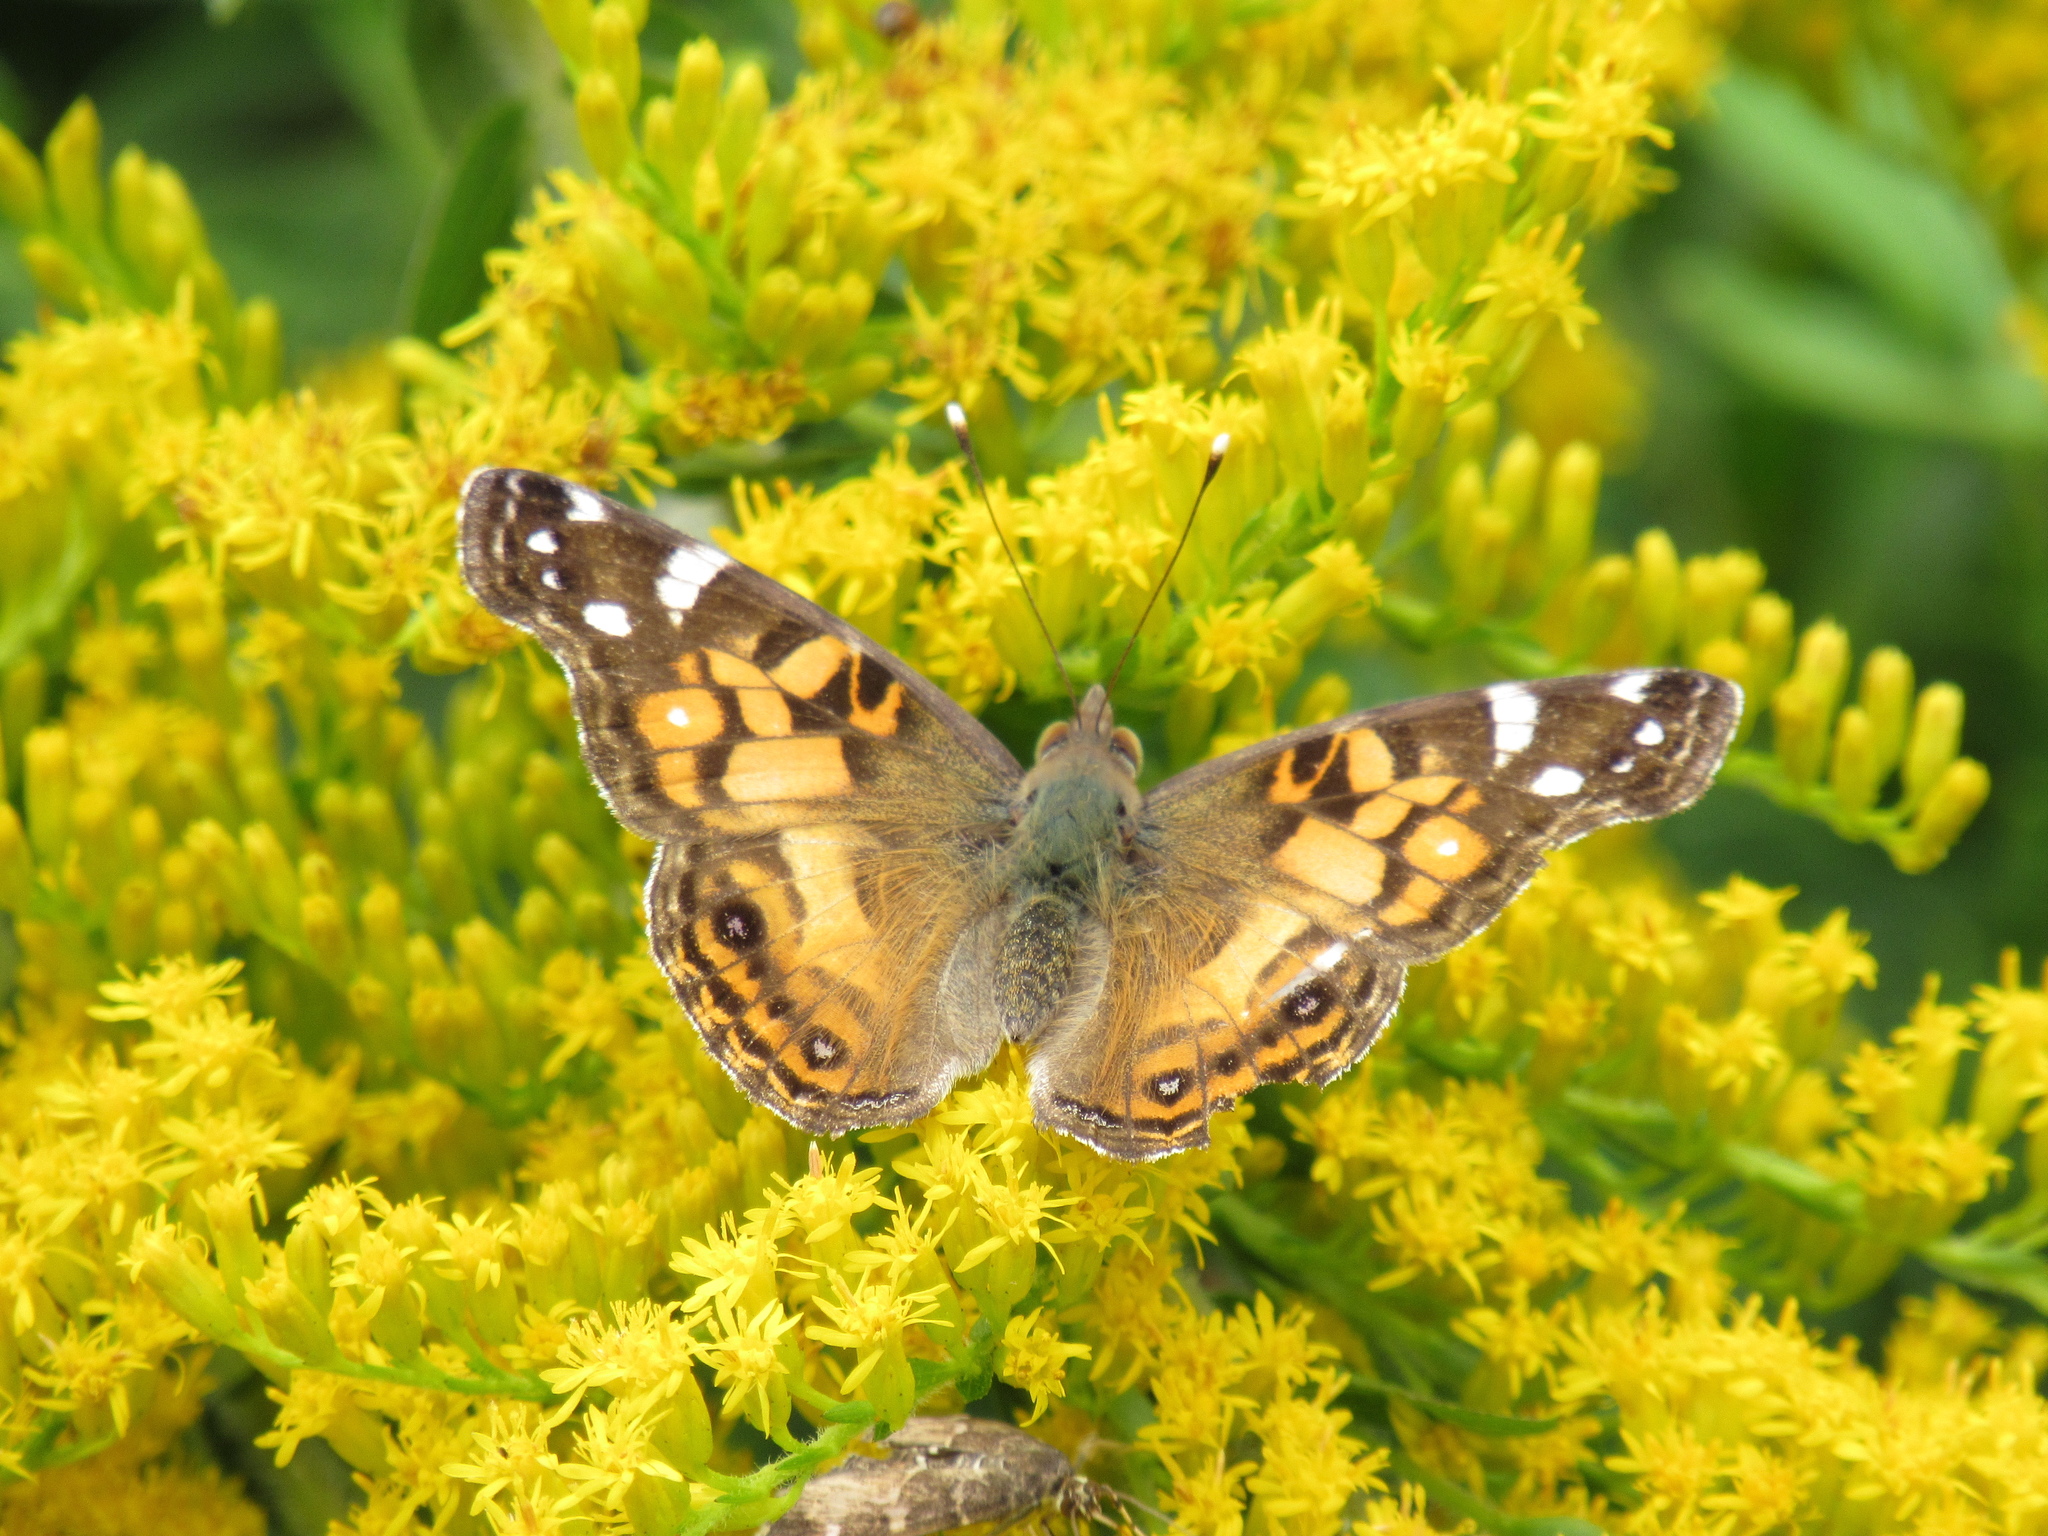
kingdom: Animalia
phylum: Arthropoda
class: Insecta
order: Lepidoptera
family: Nymphalidae
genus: Vanessa
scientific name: Vanessa virginiensis
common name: American lady
